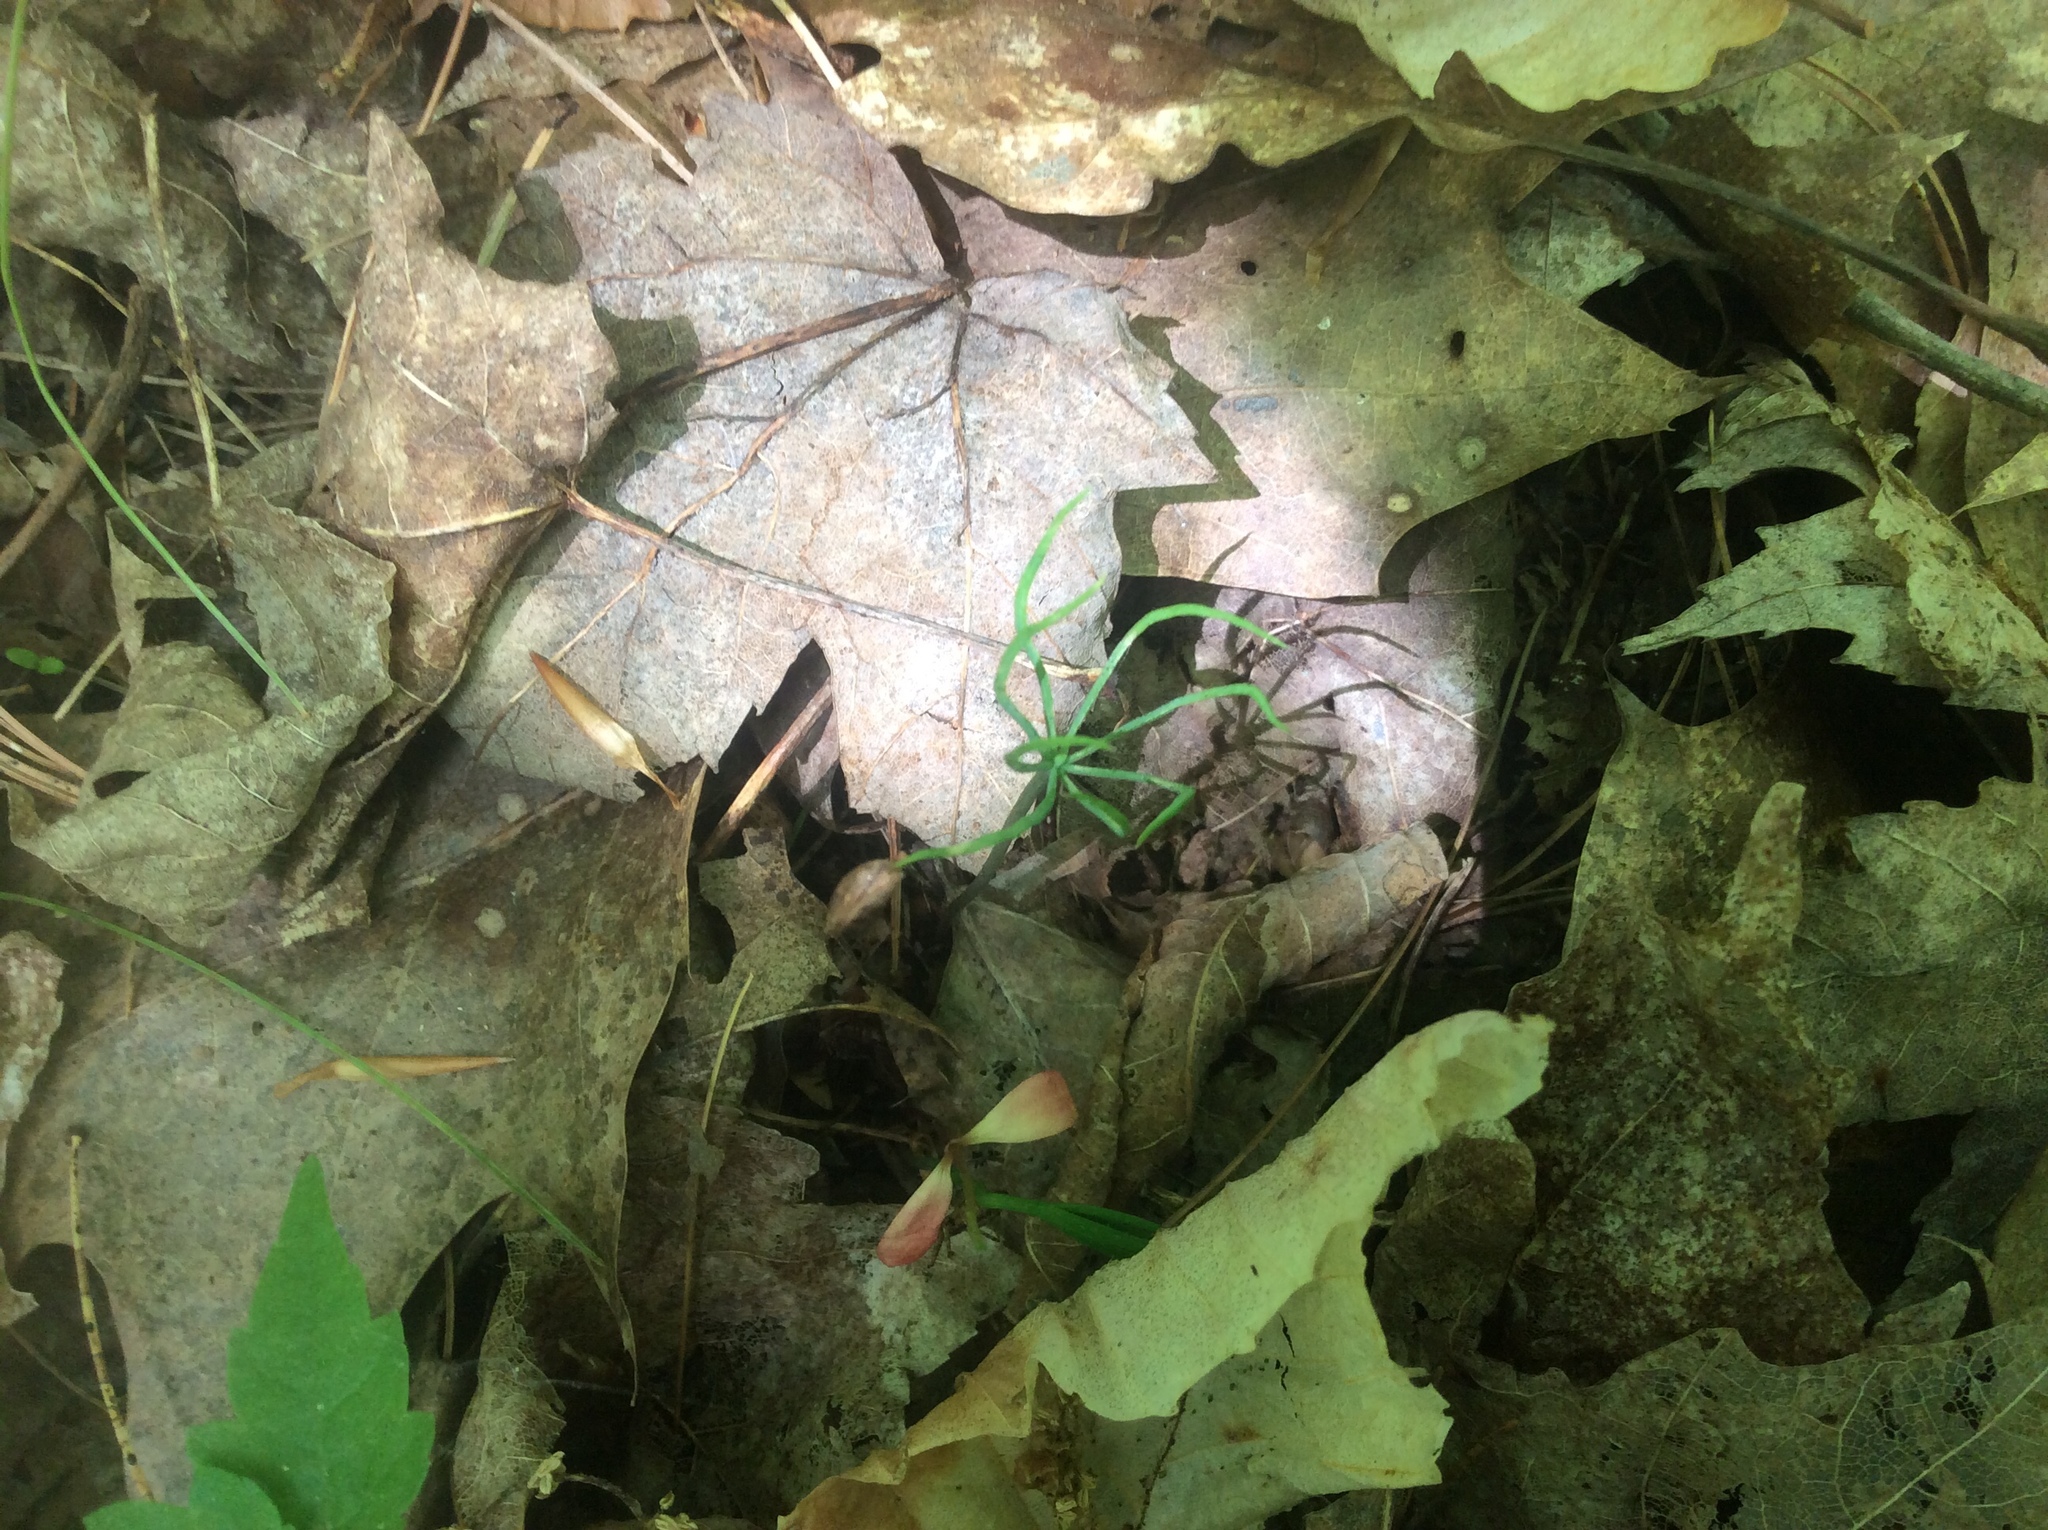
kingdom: Plantae
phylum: Tracheophyta
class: Pinopsida
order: Pinales
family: Pinaceae
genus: Pinus
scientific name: Pinus strobus
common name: Weymouth pine
